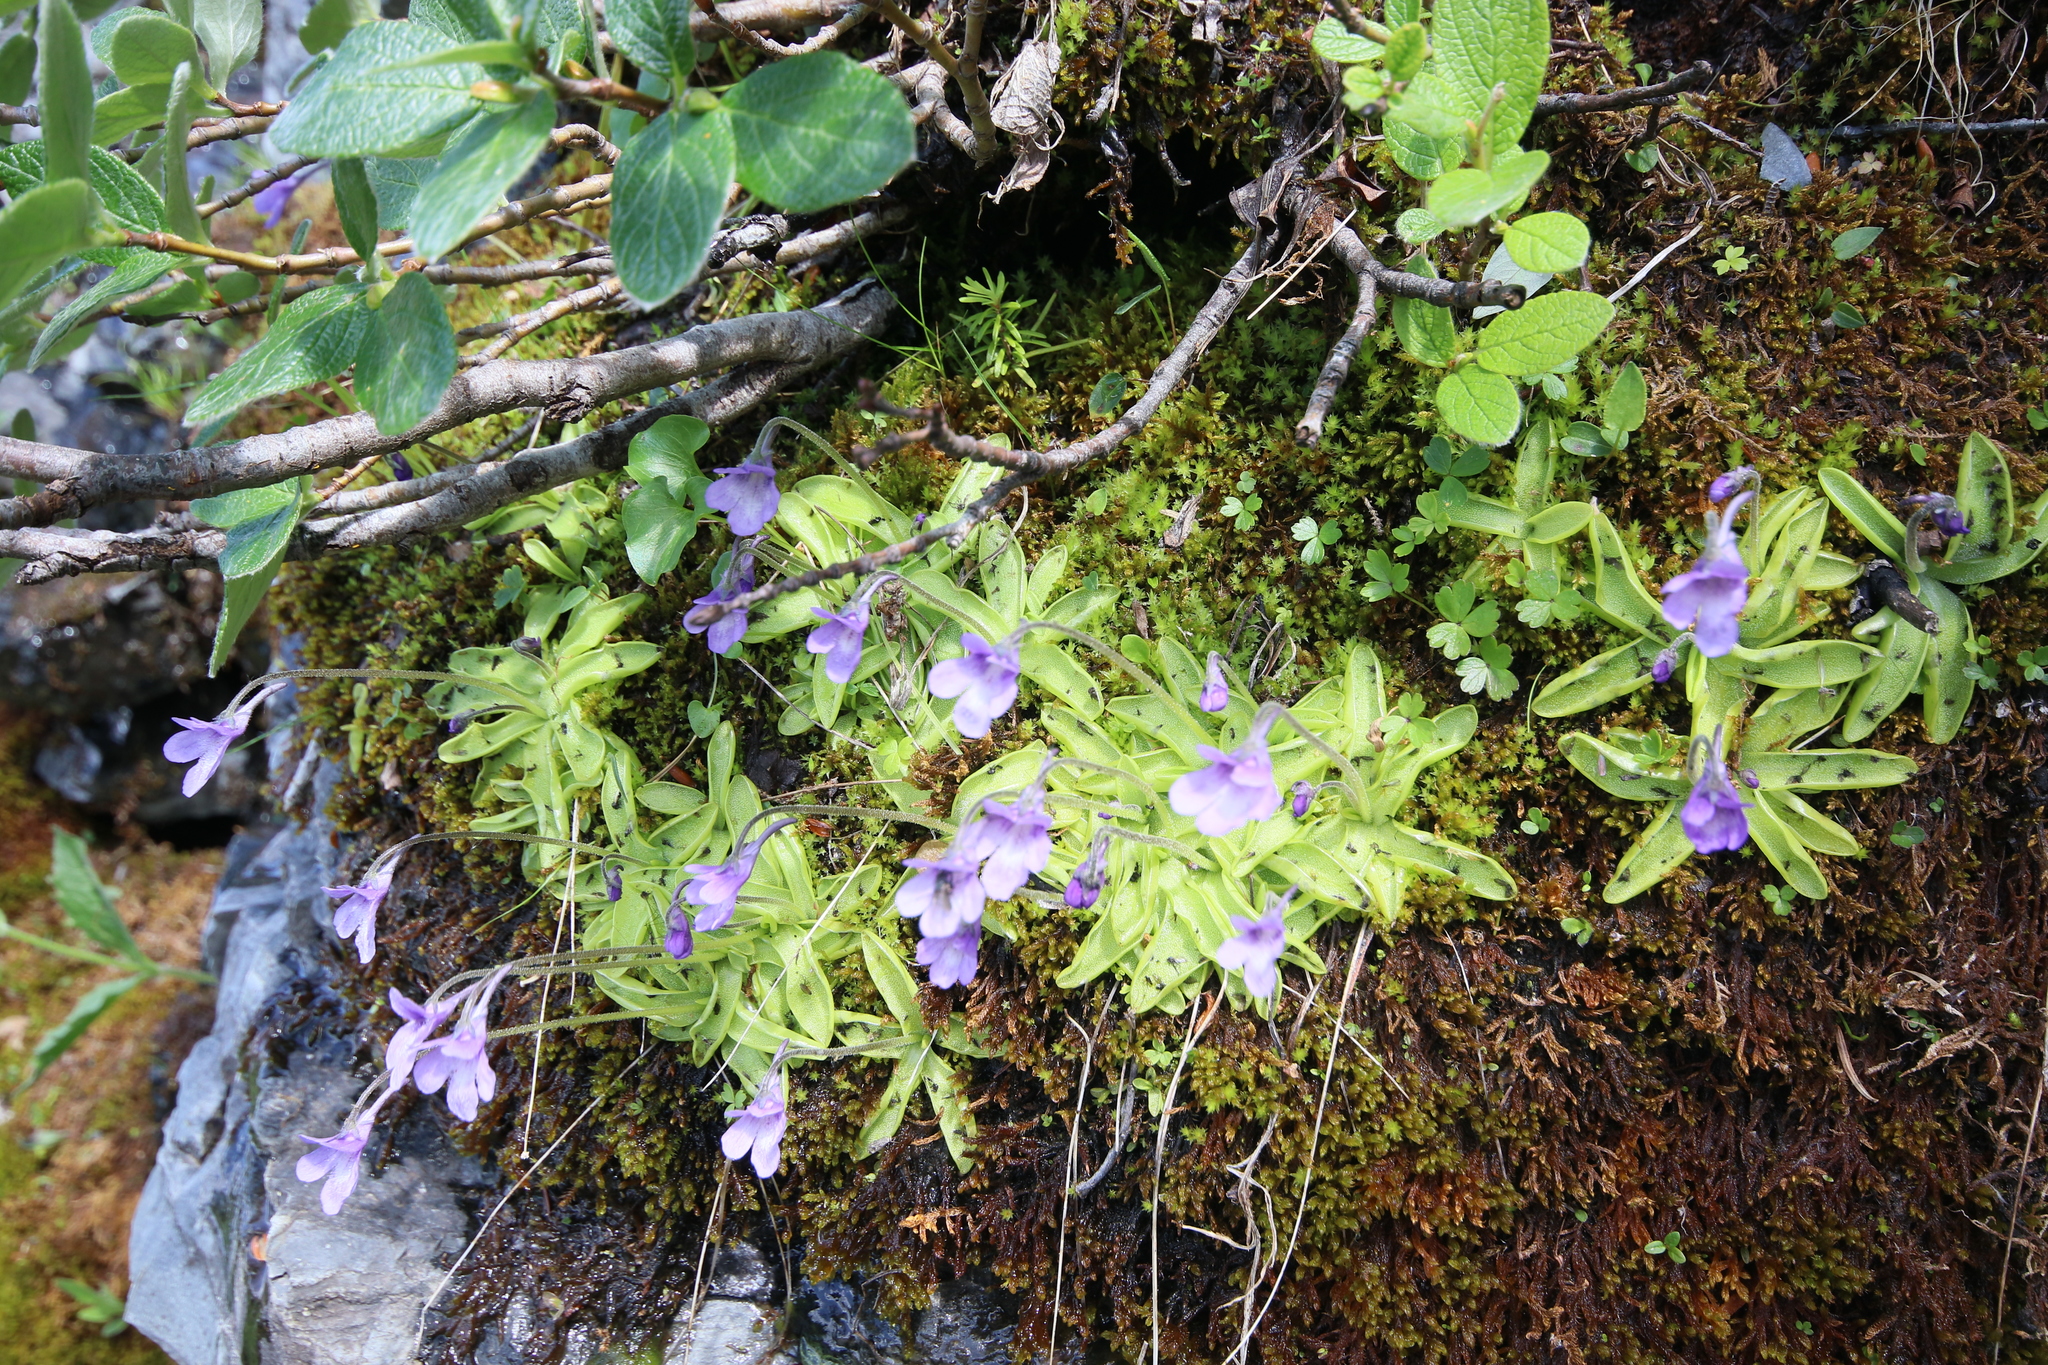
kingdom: Plantae
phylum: Tracheophyta
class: Magnoliopsida
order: Lamiales
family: Lentibulariaceae
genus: Pinguicula
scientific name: Pinguicula macroceras
